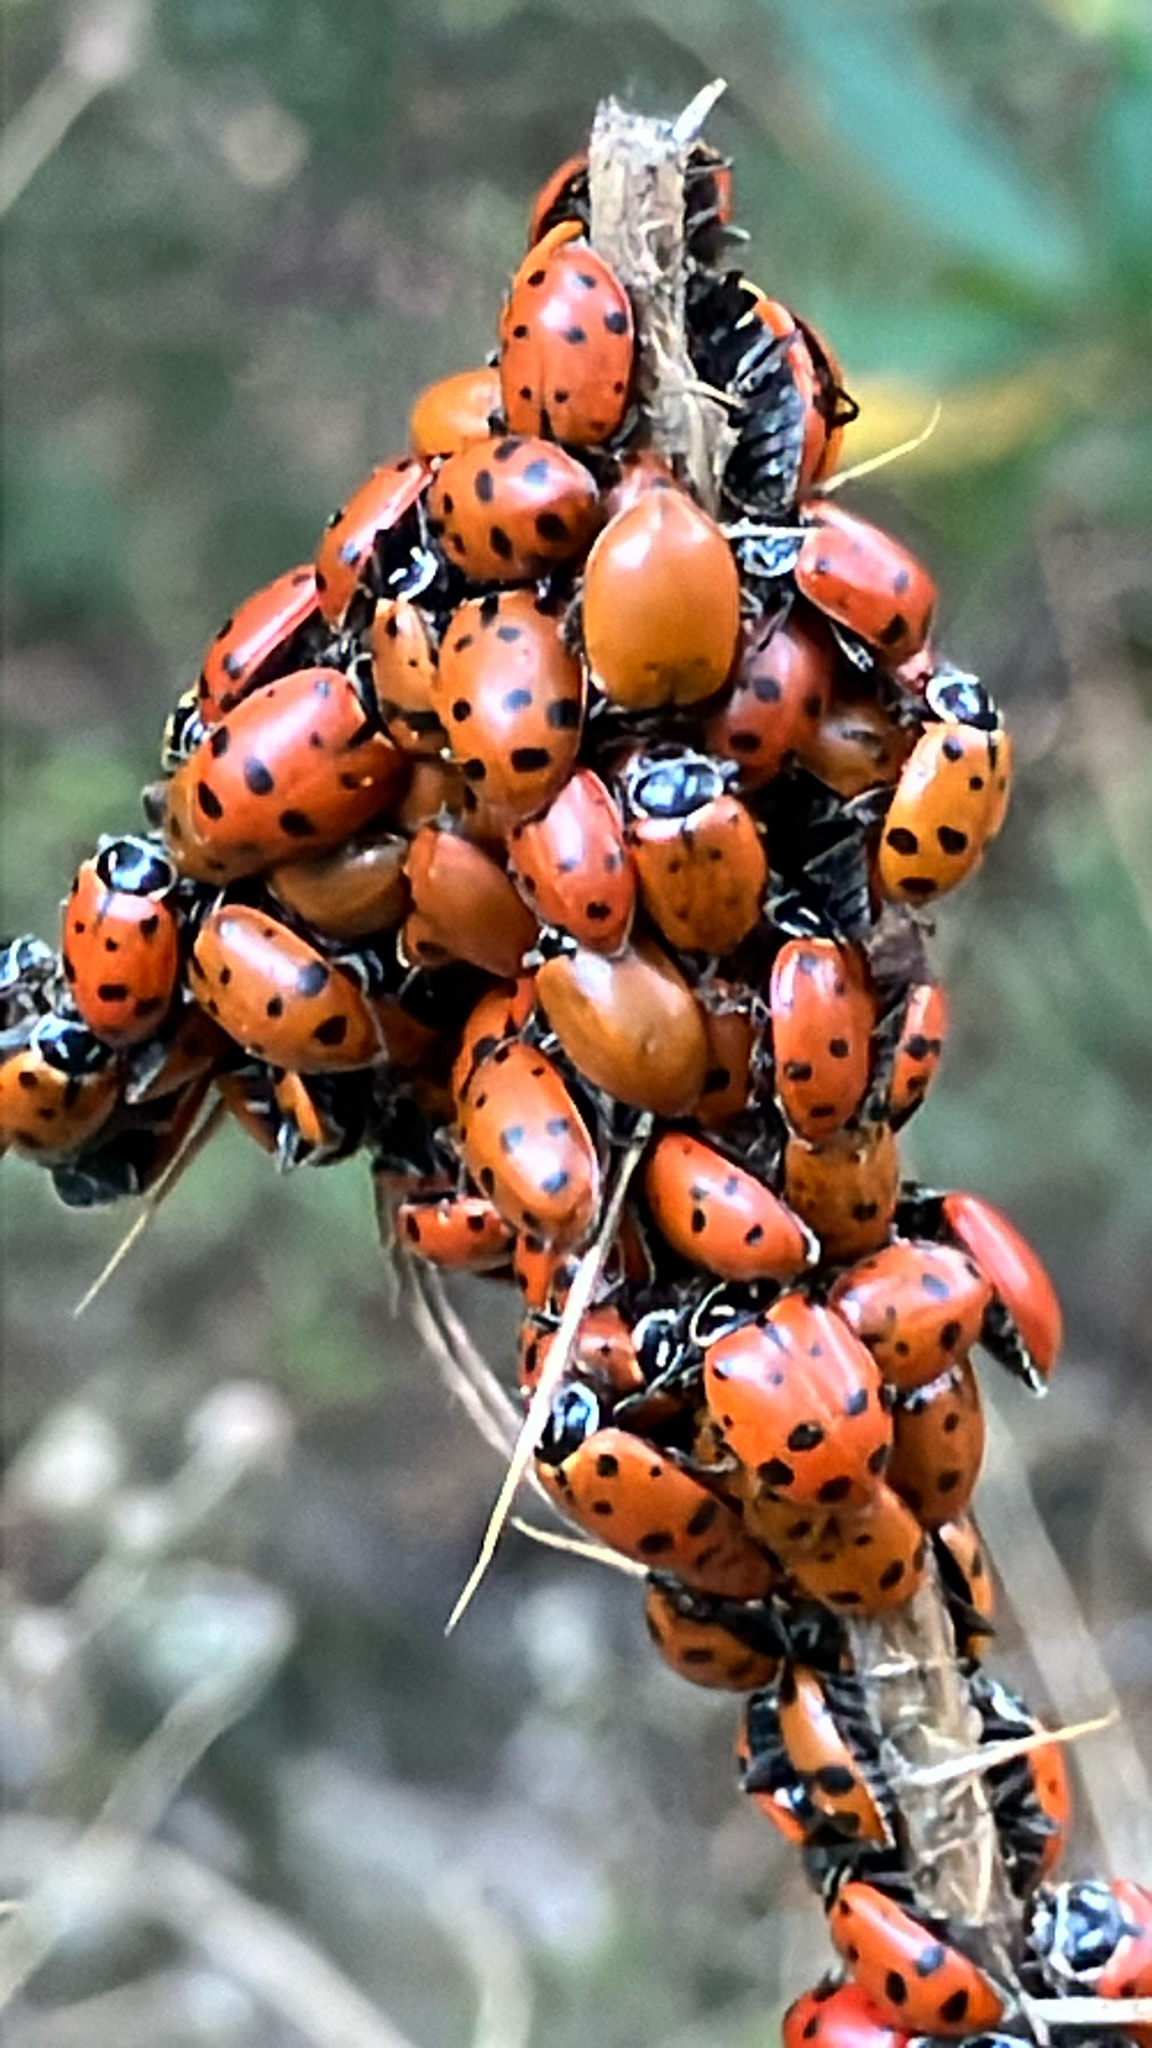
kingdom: Animalia
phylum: Arthropoda
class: Insecta
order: Coleoptera
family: Coccinellidae
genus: Hippodamia
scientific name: Hippodamia convergens
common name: Convergent lady beetle
